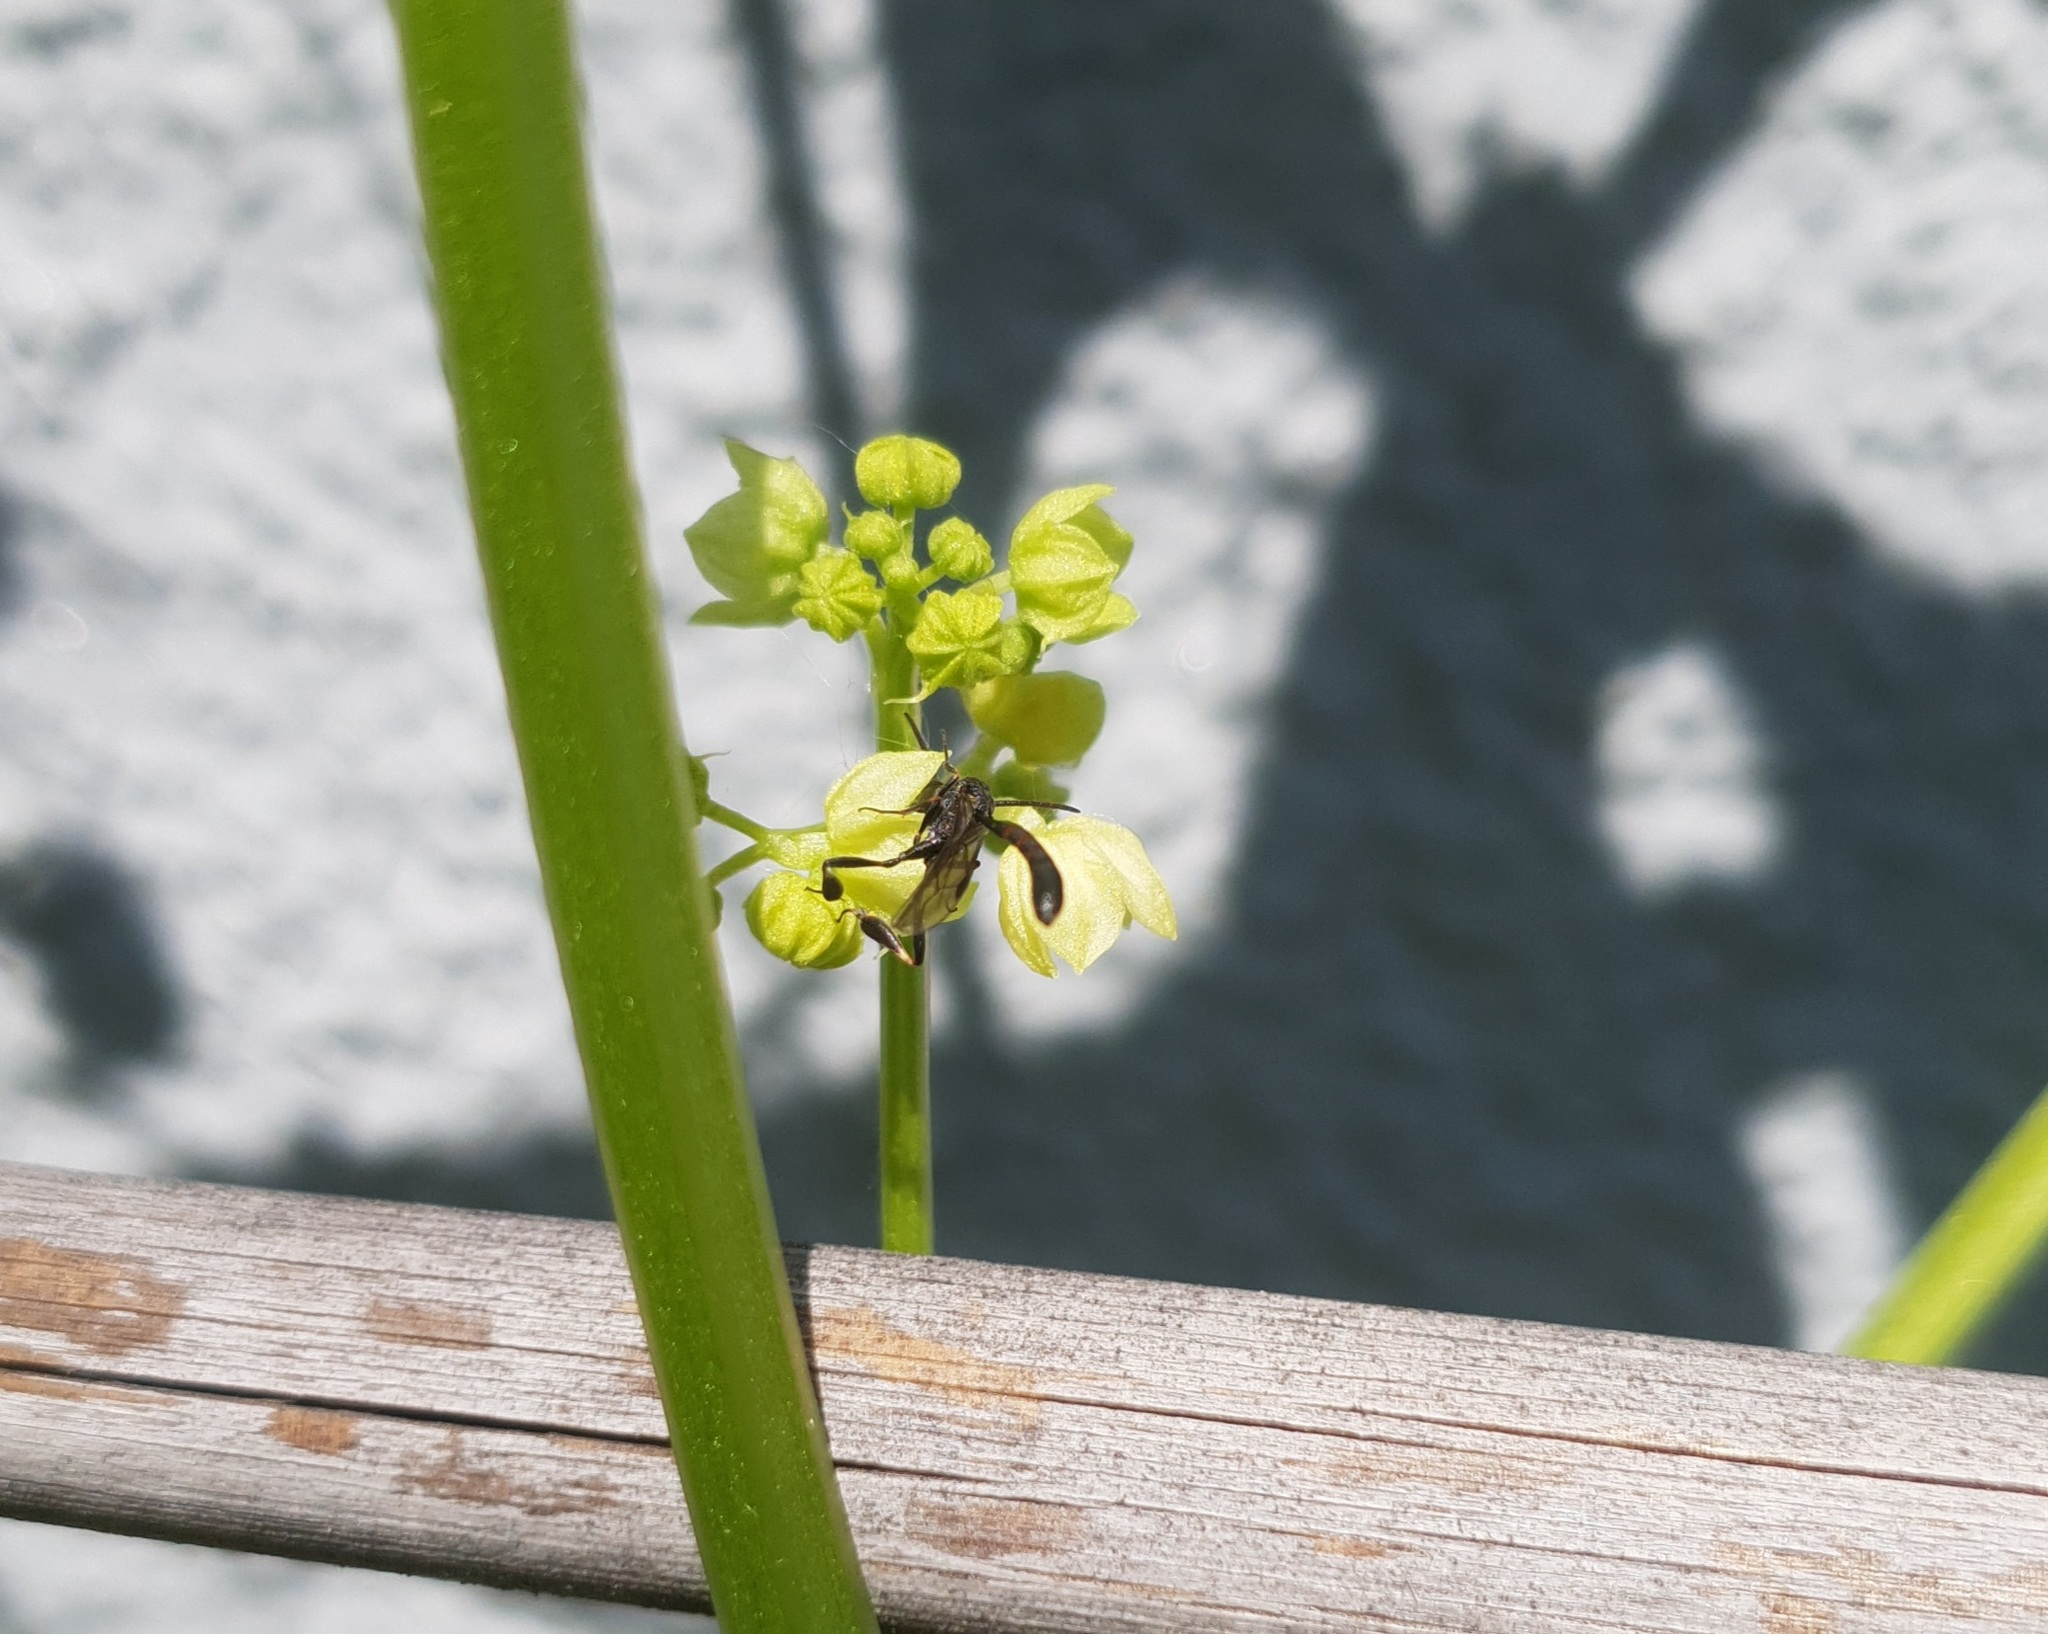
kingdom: Animalia
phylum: Arthropoda
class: Insecta
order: Hymenoptera
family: Gasteruptiidae
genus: Gasteruption
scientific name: Gasteruption
